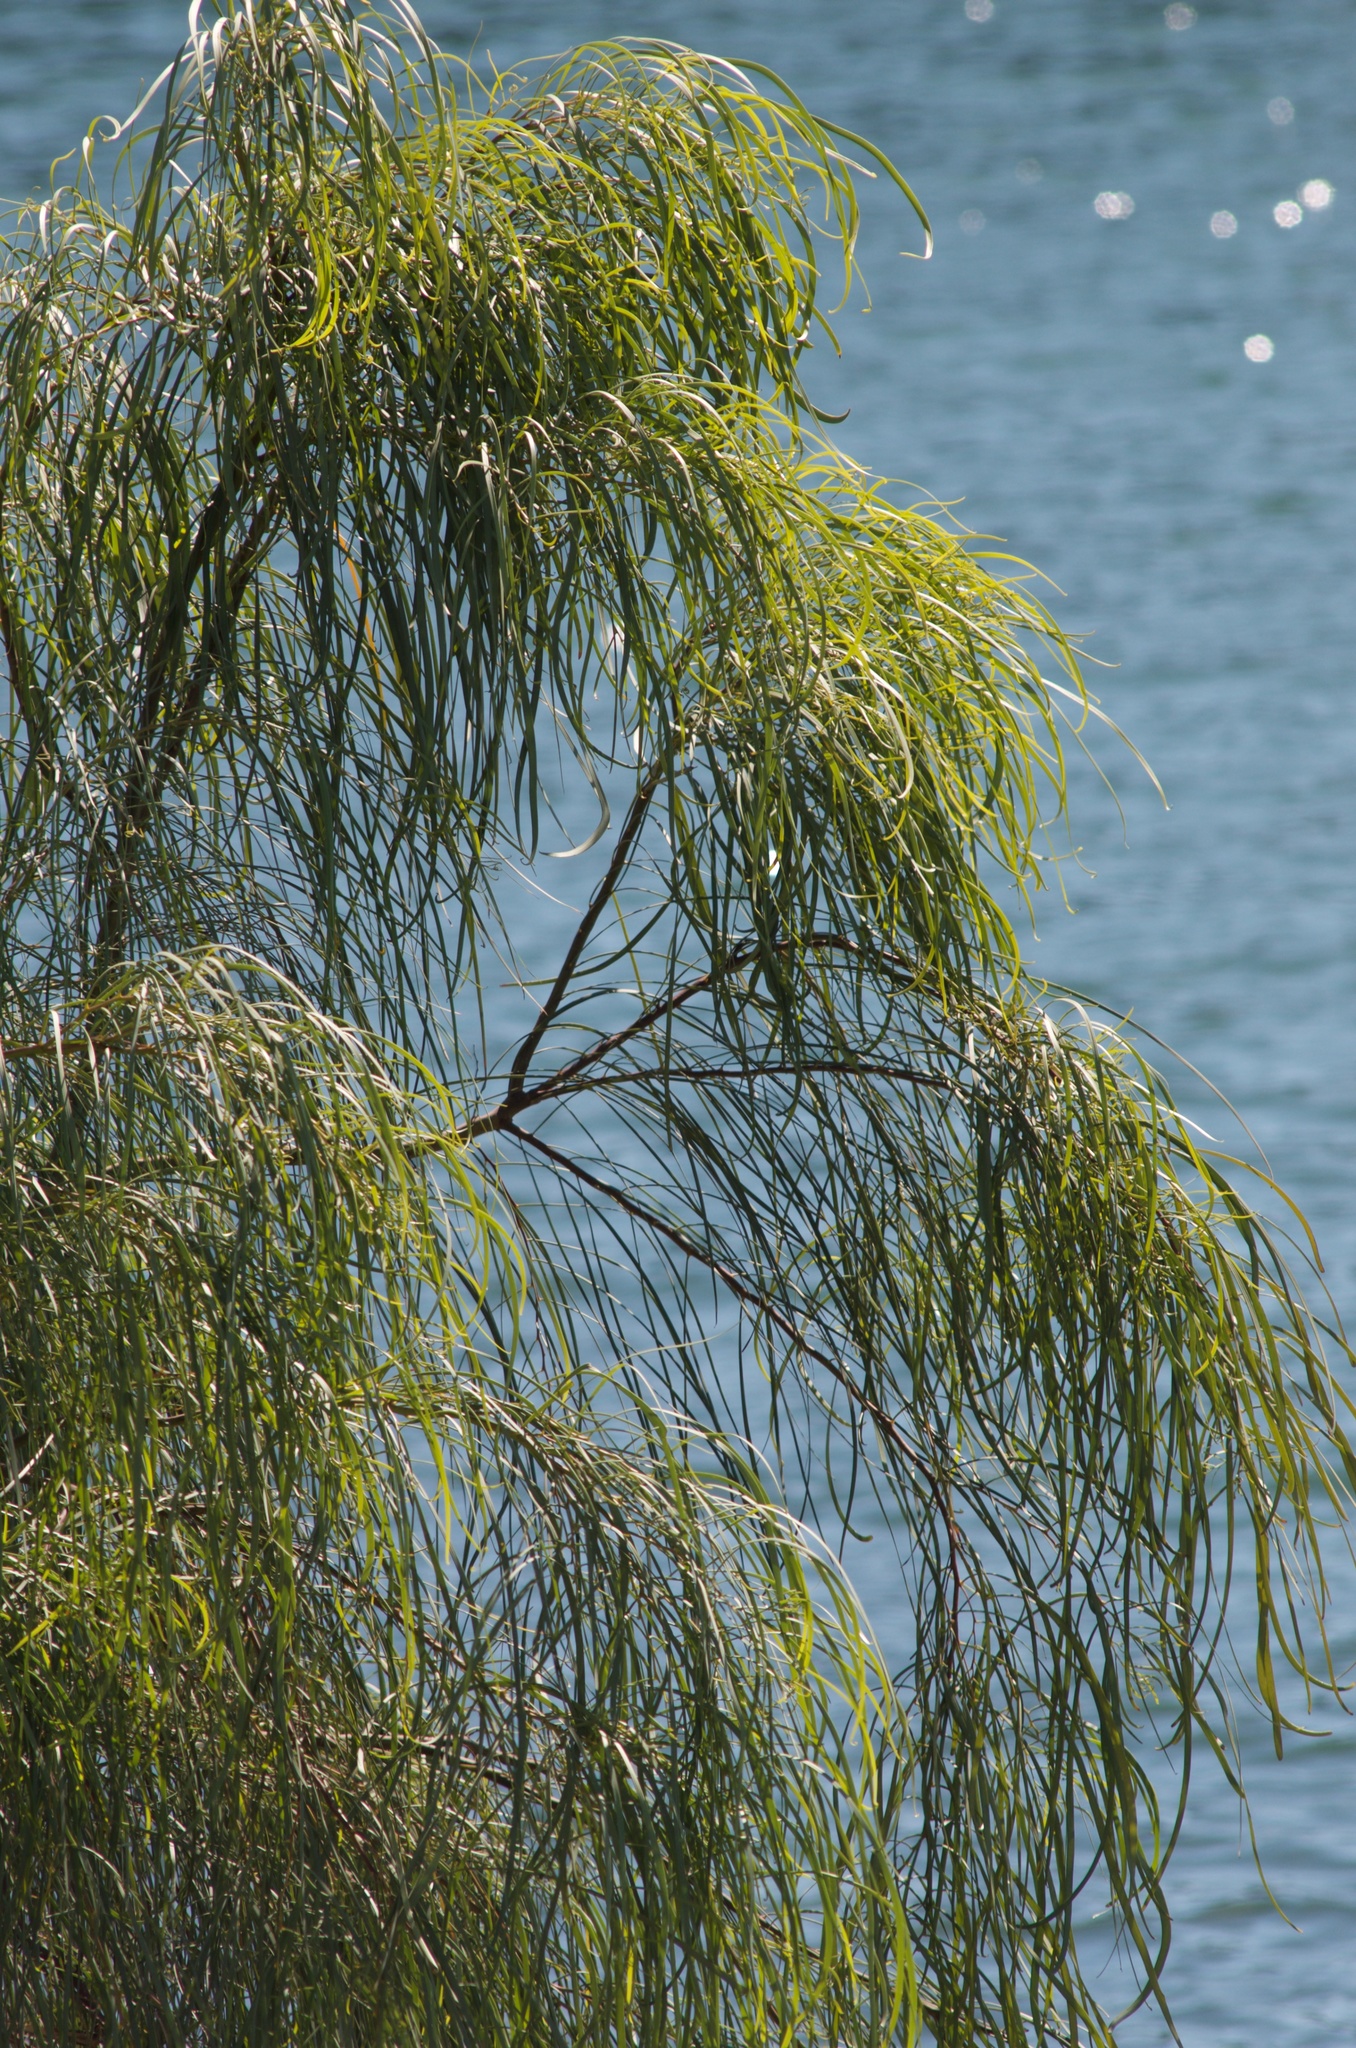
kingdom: Plantae
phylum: Tracheophyta
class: Magnoliopsida
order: Fabales
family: Fabaceae
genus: Acacia
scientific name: Acacia stenophylla
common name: River cooba
